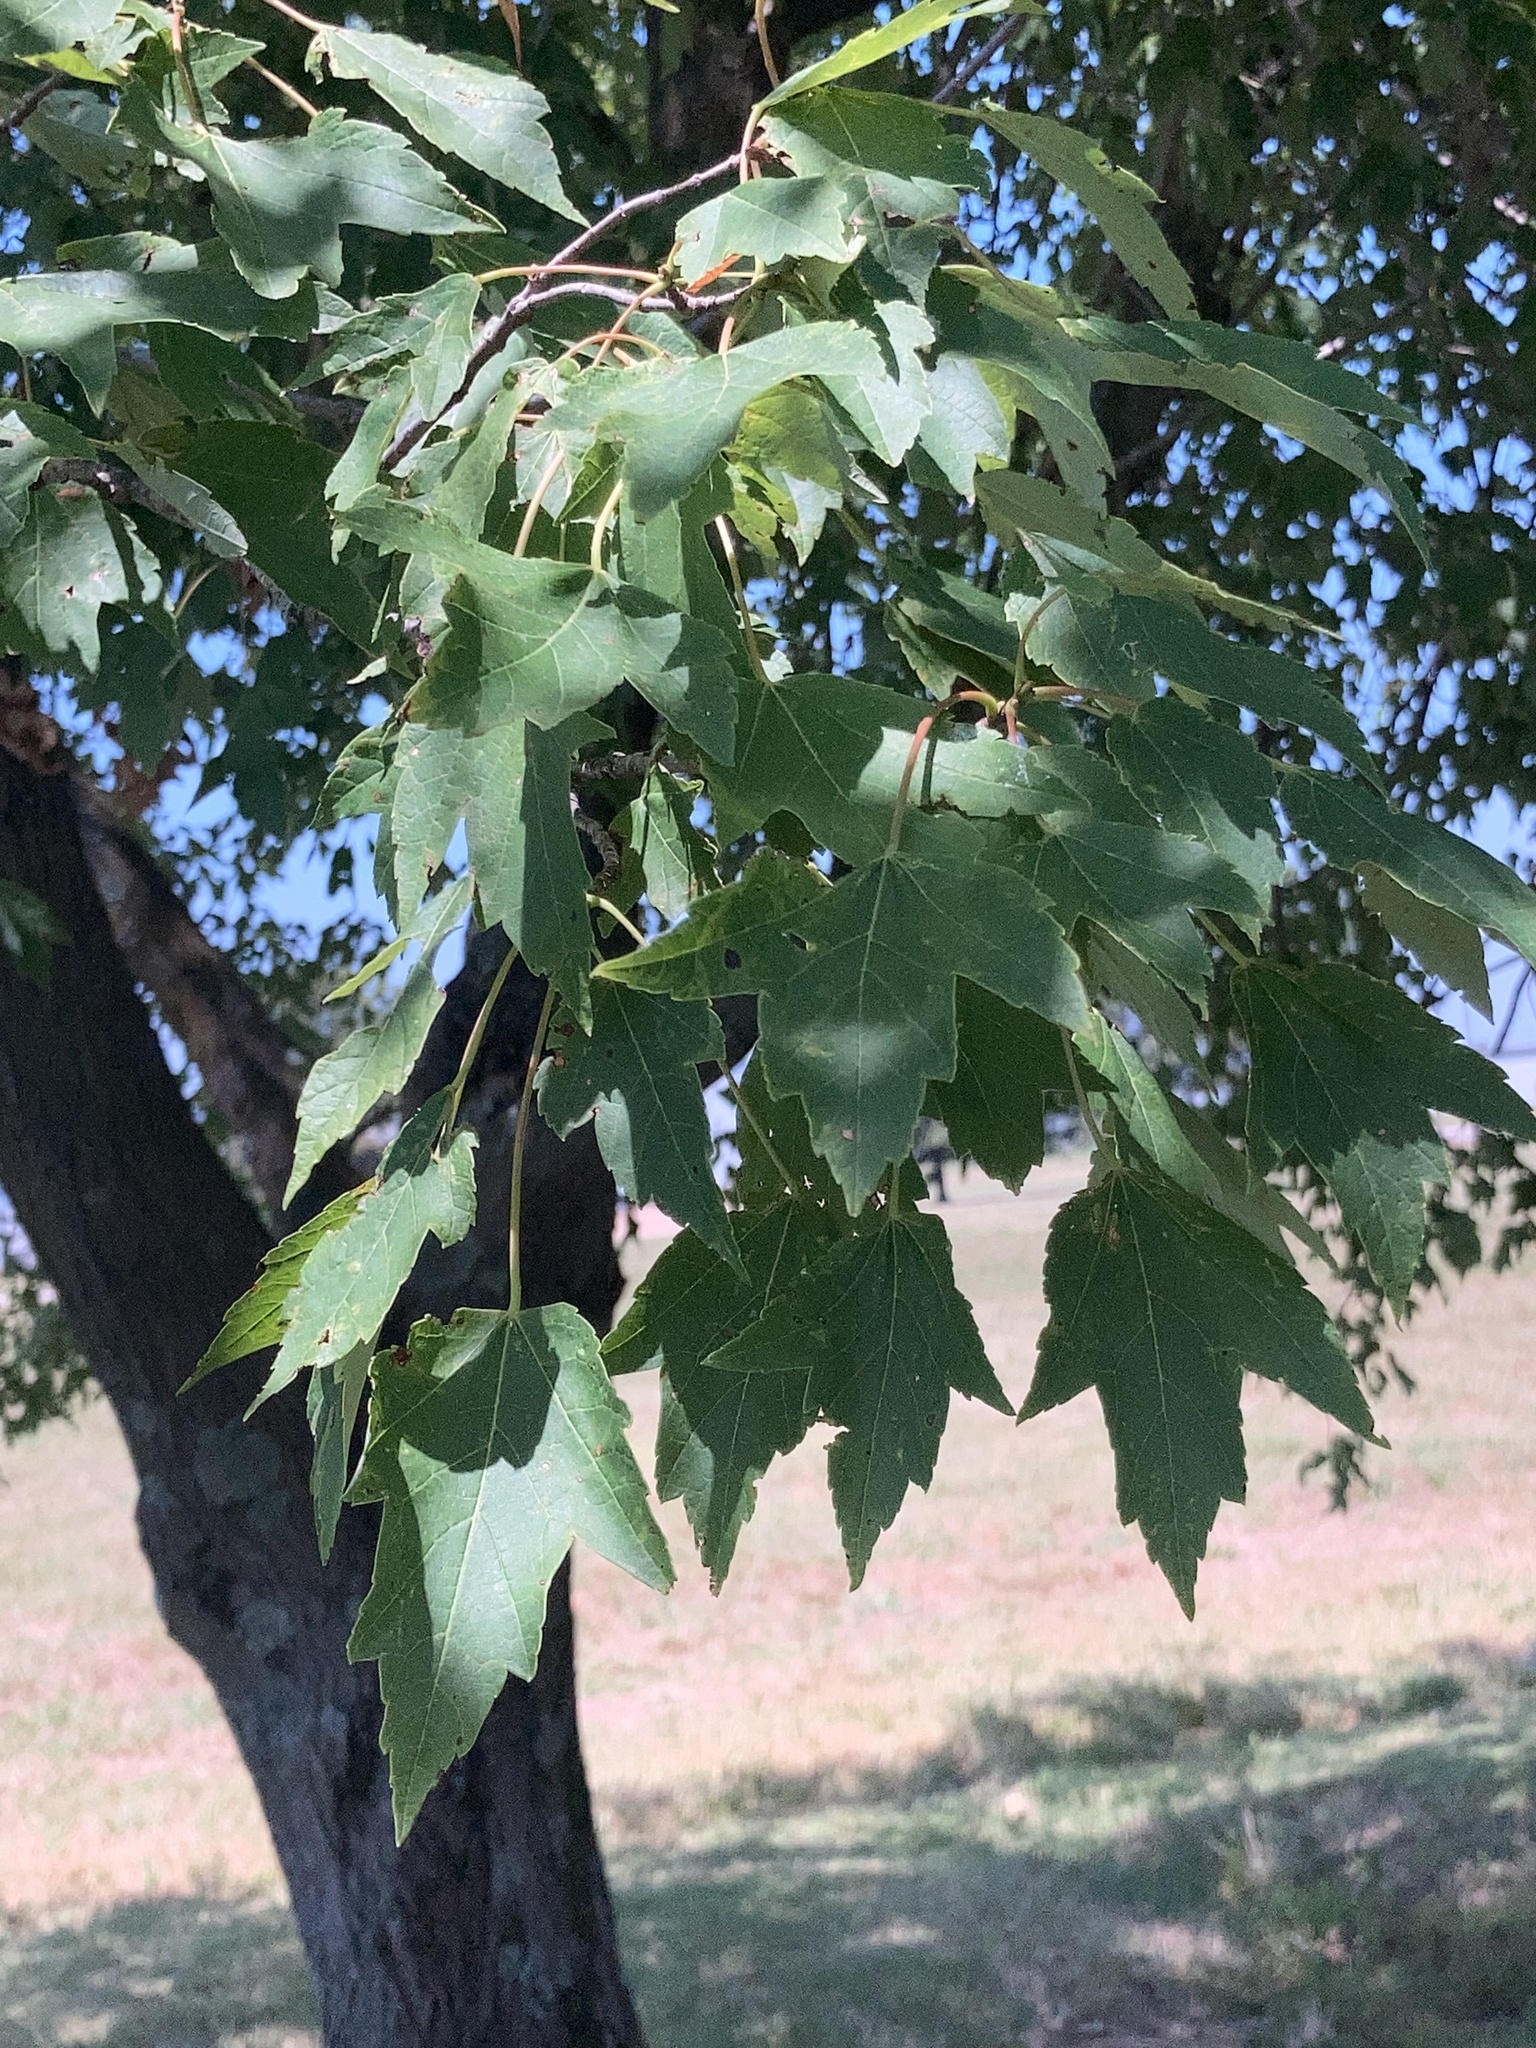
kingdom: Plantae
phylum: Tracheophyta
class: Magnoliopsida
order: Sapindales
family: Sapindaceae
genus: Acer
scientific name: Acer rubrum
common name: Red maple
